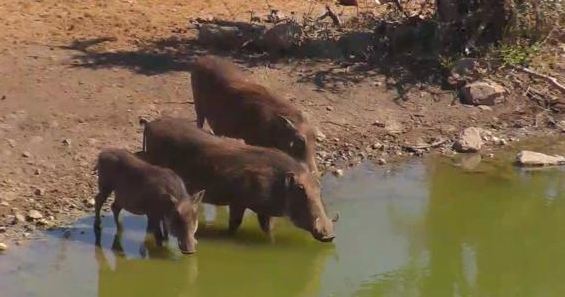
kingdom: Animalia
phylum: Chordata
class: Mammalia
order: Artiodactyla
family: Suidae
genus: Phacochoerus
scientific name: Phacochoerus africanus
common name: Common warthog
